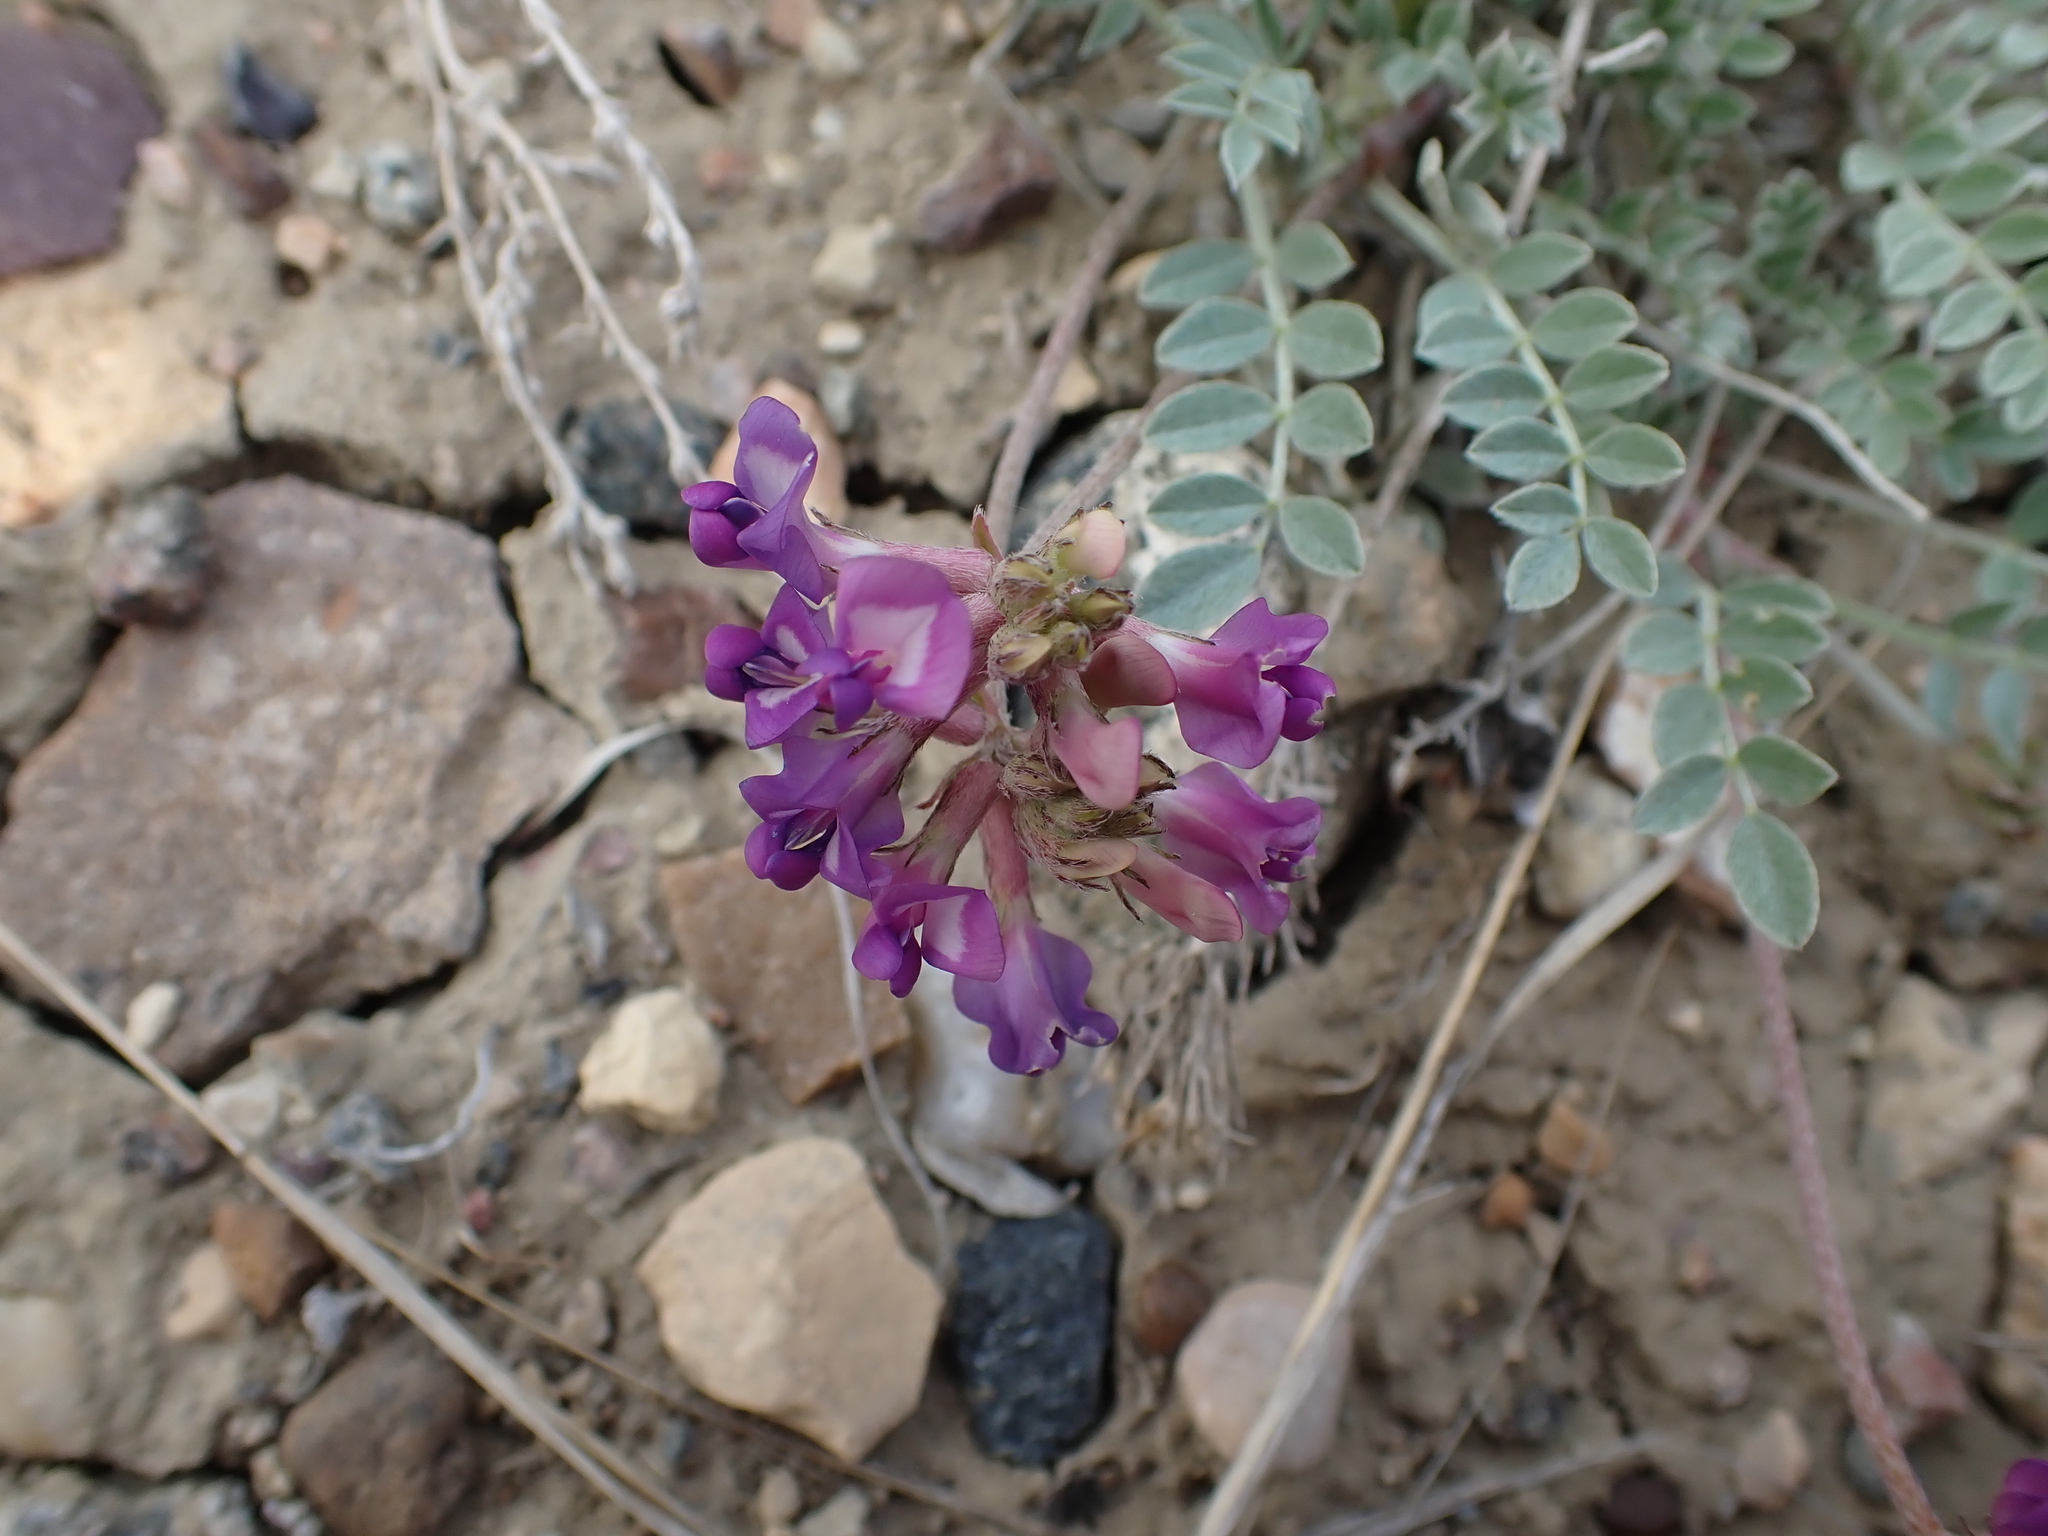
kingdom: Plantae
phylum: Tracheophyta
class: Magnoliopsida
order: Fabales
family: Fabaceae
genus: Astragalus
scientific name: Astragalus missouriensis
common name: Missouri milk-vetch
